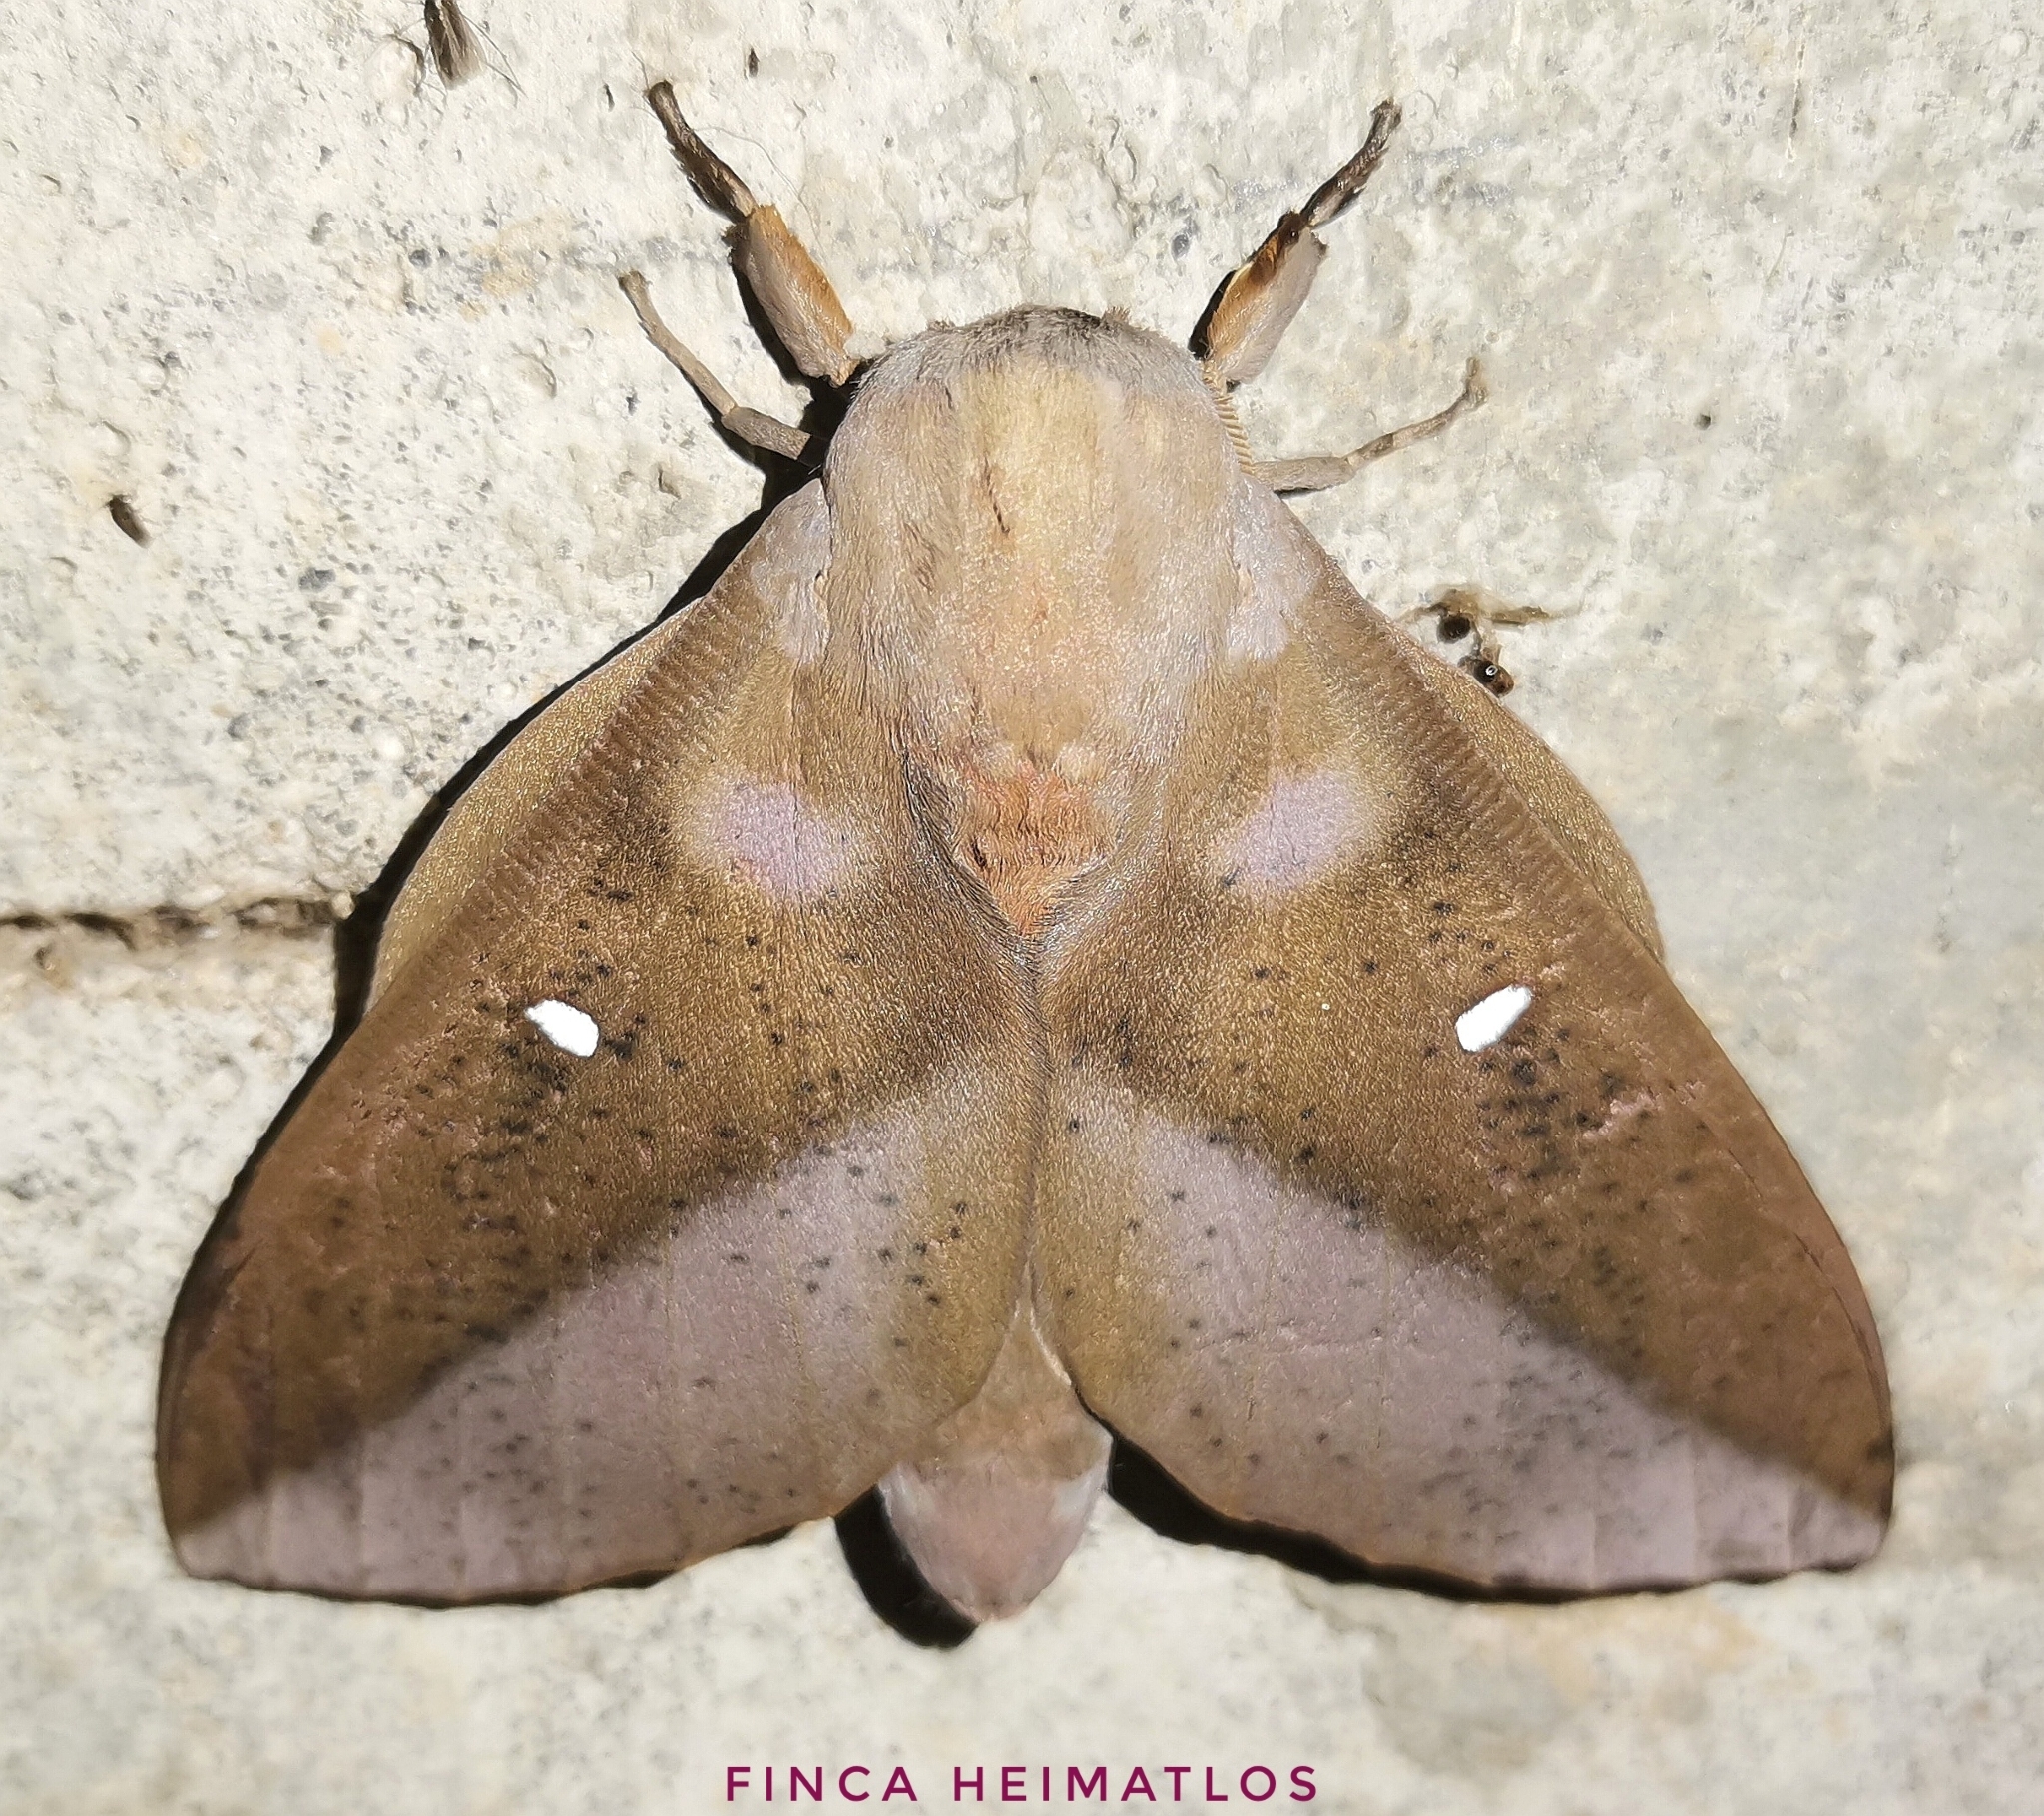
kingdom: Animalia
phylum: Arthropoda
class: Insecta
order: Lepidoptera
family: Saturniidae
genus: Othorene
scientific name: Othorene hodeva
